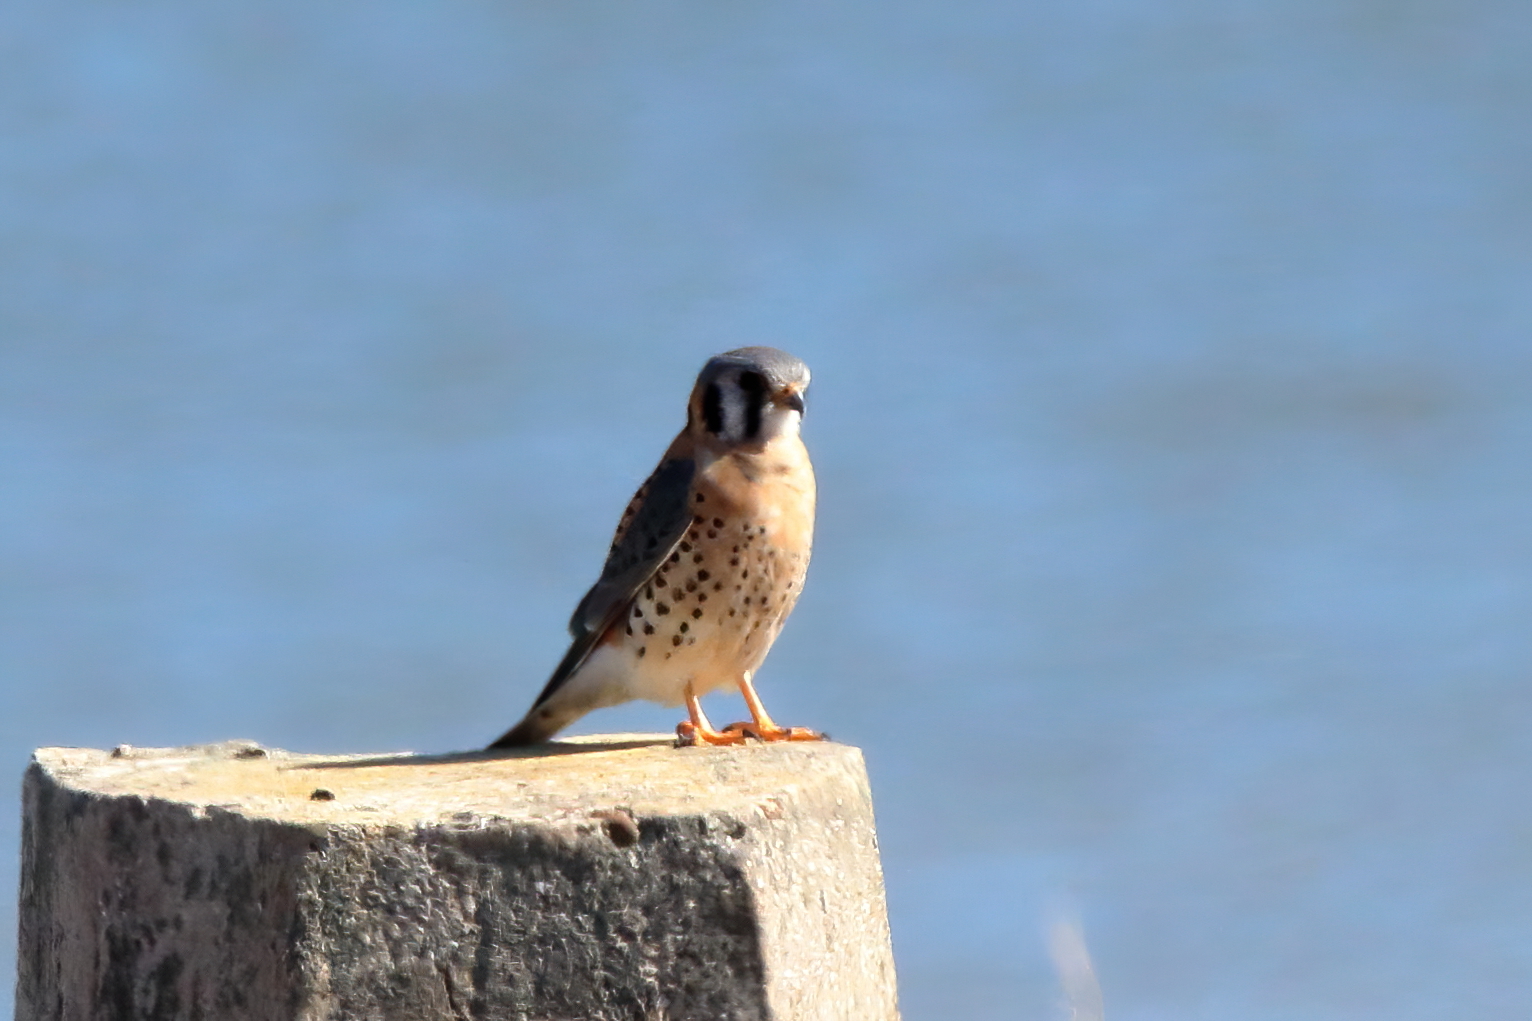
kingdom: Animalia
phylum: Chordata
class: Aves
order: Falconiformes
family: Falconidae
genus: Falco
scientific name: Falco sparverius
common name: American kestrel
